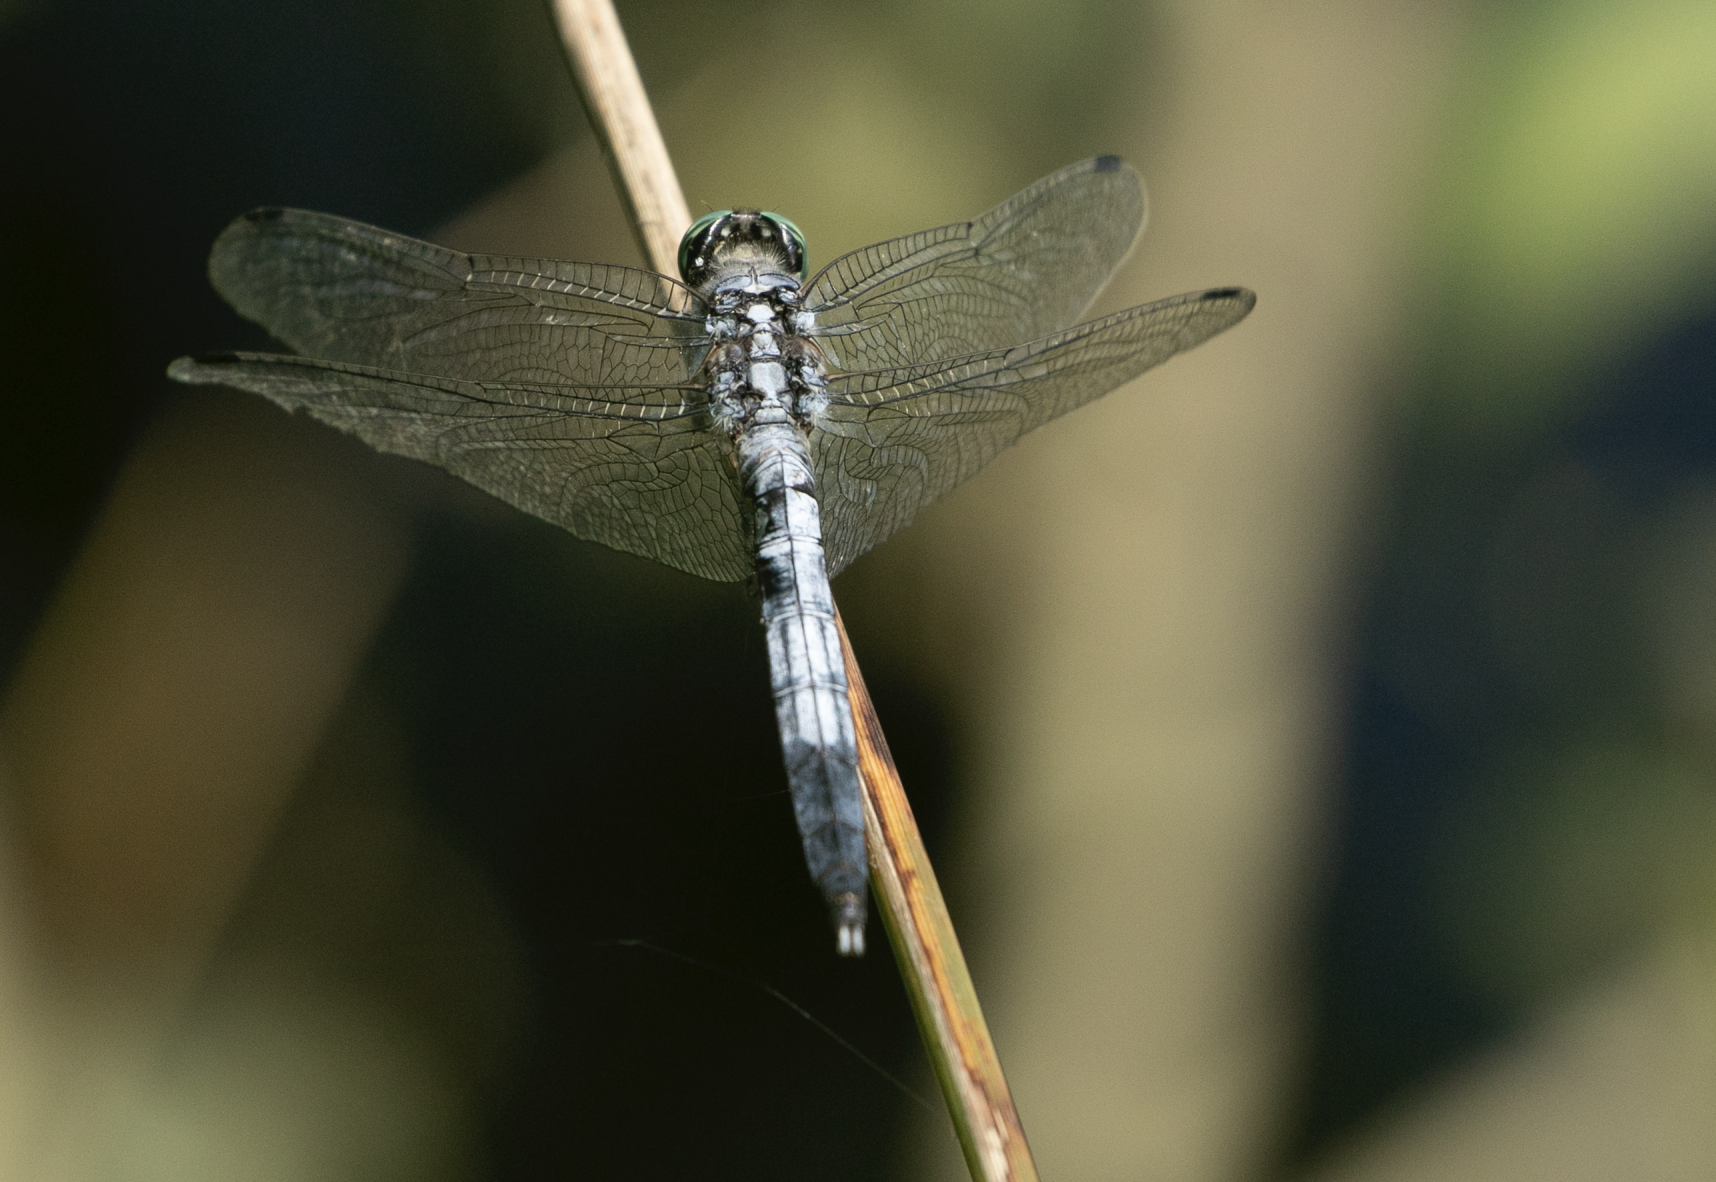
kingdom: Animalia
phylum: Arthropoda
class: Insecta
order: Odonata
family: Libellulidae
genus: Orthetrum
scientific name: Orthetrum albistylum
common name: White-tailed skimmer
